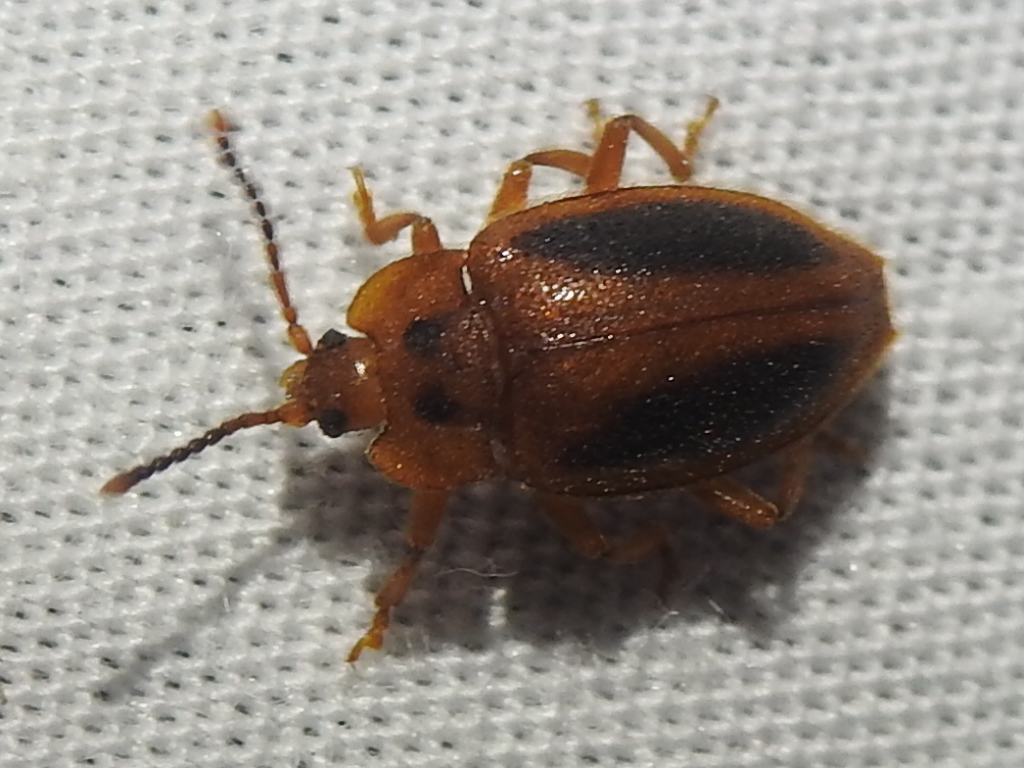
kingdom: Animalia
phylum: Arthropoda
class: Insecta
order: Coleoptera
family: Endomychidae
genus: Epipocus
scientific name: Epipocus punctatus
